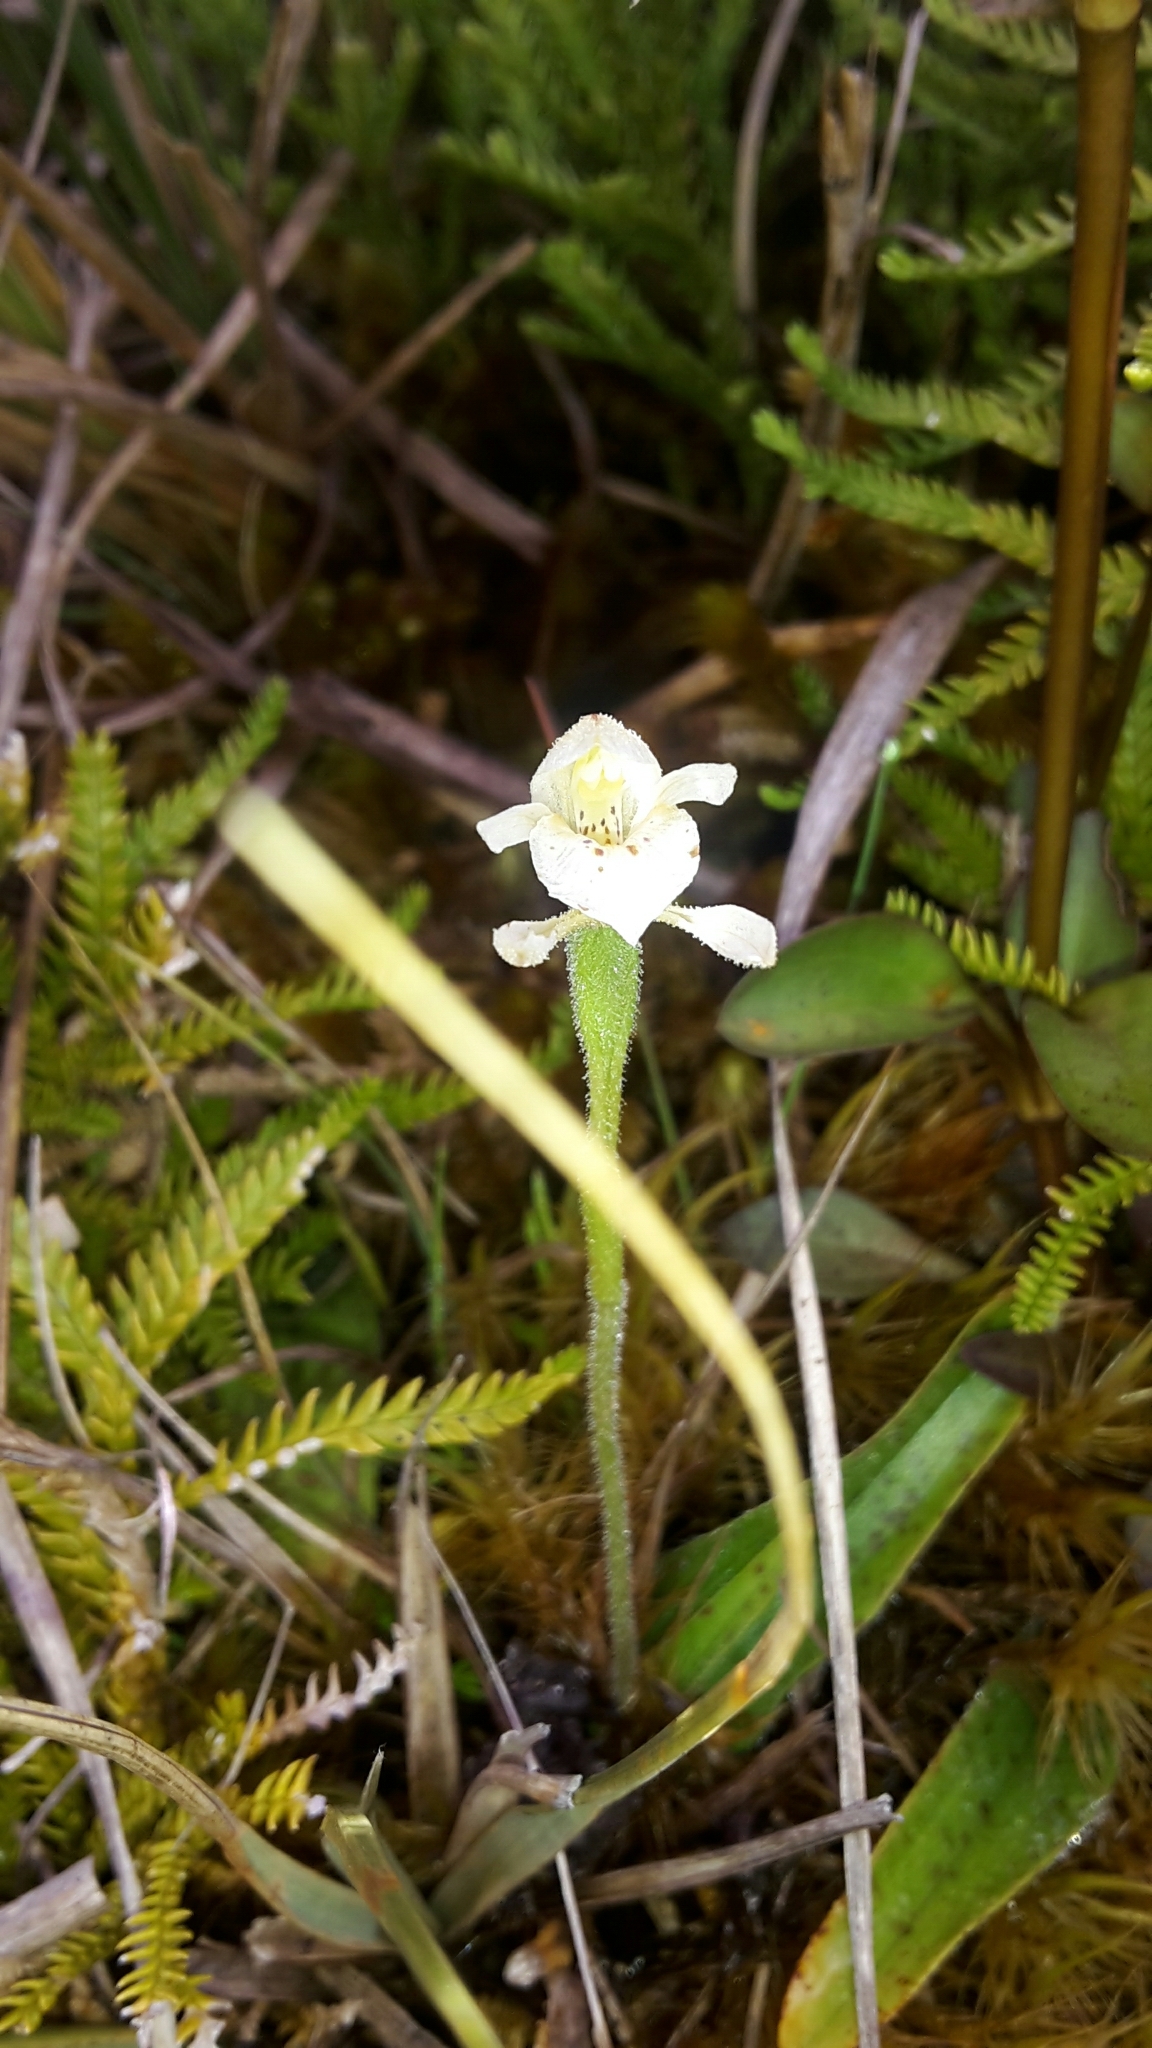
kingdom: Plantae
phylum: Tracheophyta
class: Liliopsida
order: Asparagales
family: Orchidaceae
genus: Aporostylis
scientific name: Aporostylis bifolia
